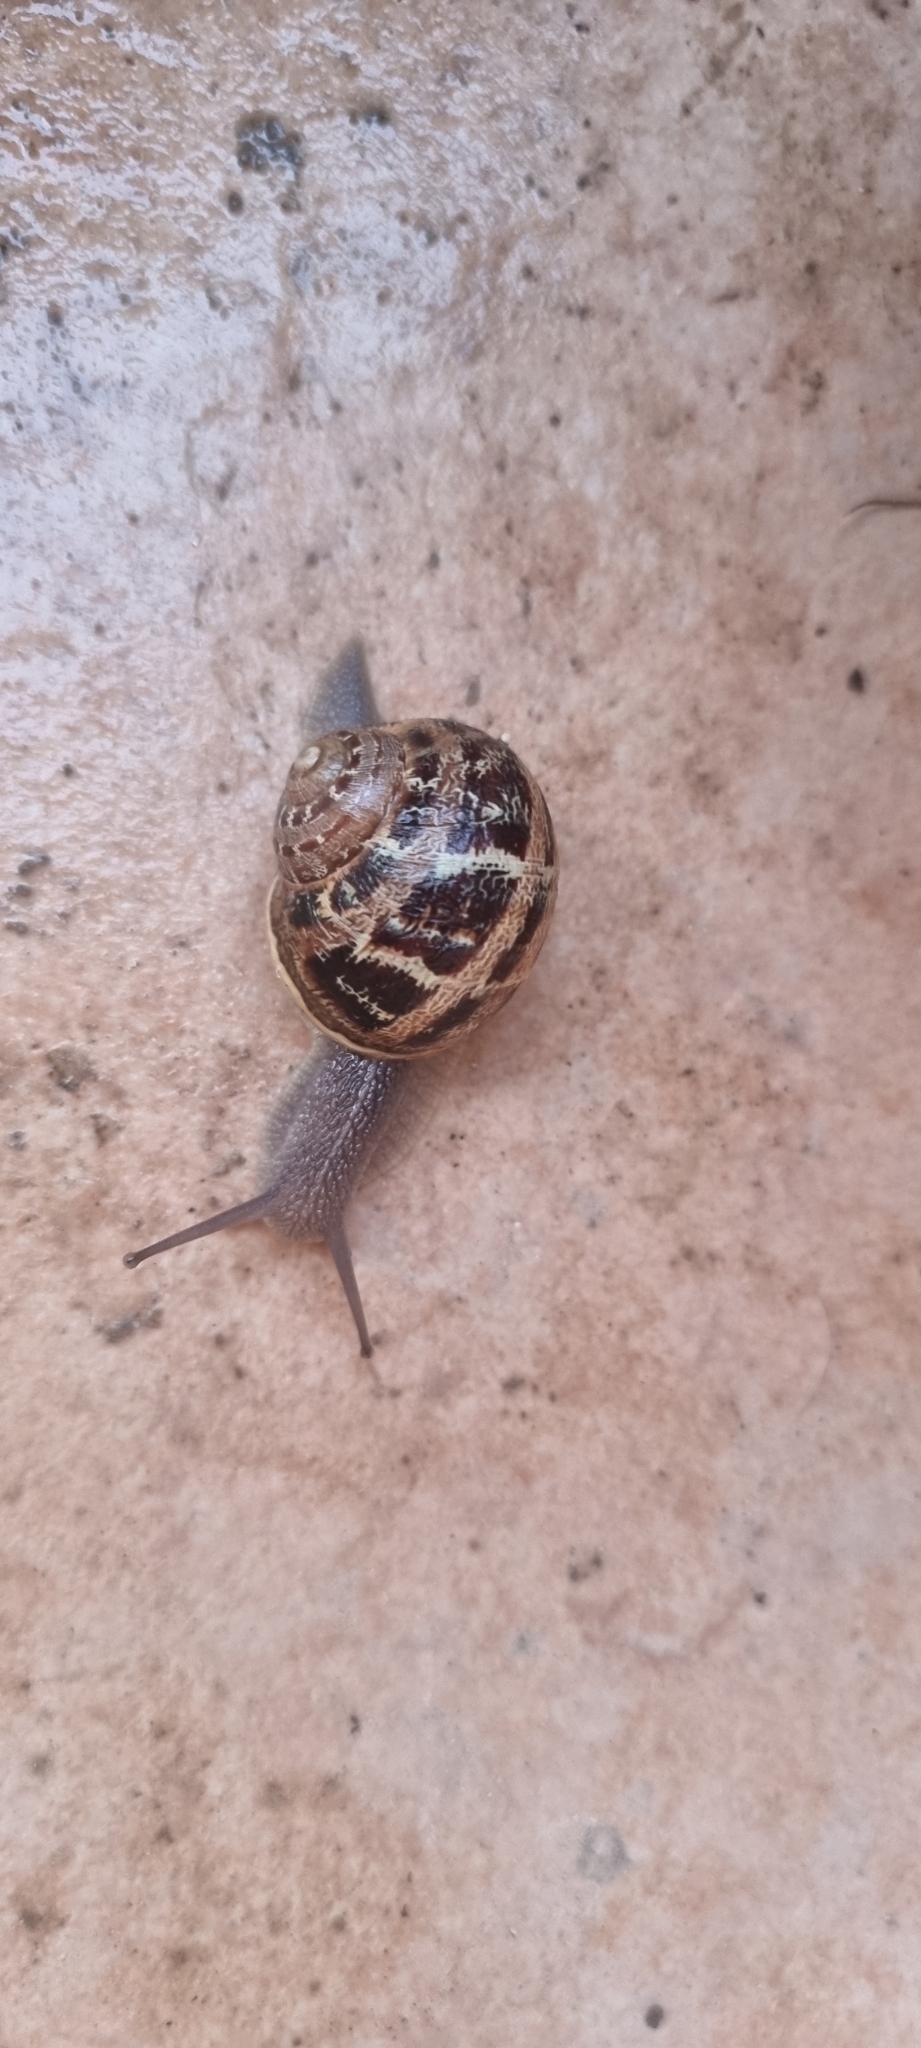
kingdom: Animalia
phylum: Mollusca
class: Gastropoda
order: Stylommatophora
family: Helicidae
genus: Cornu
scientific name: Cornu aspersum
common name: Brown garden snail
